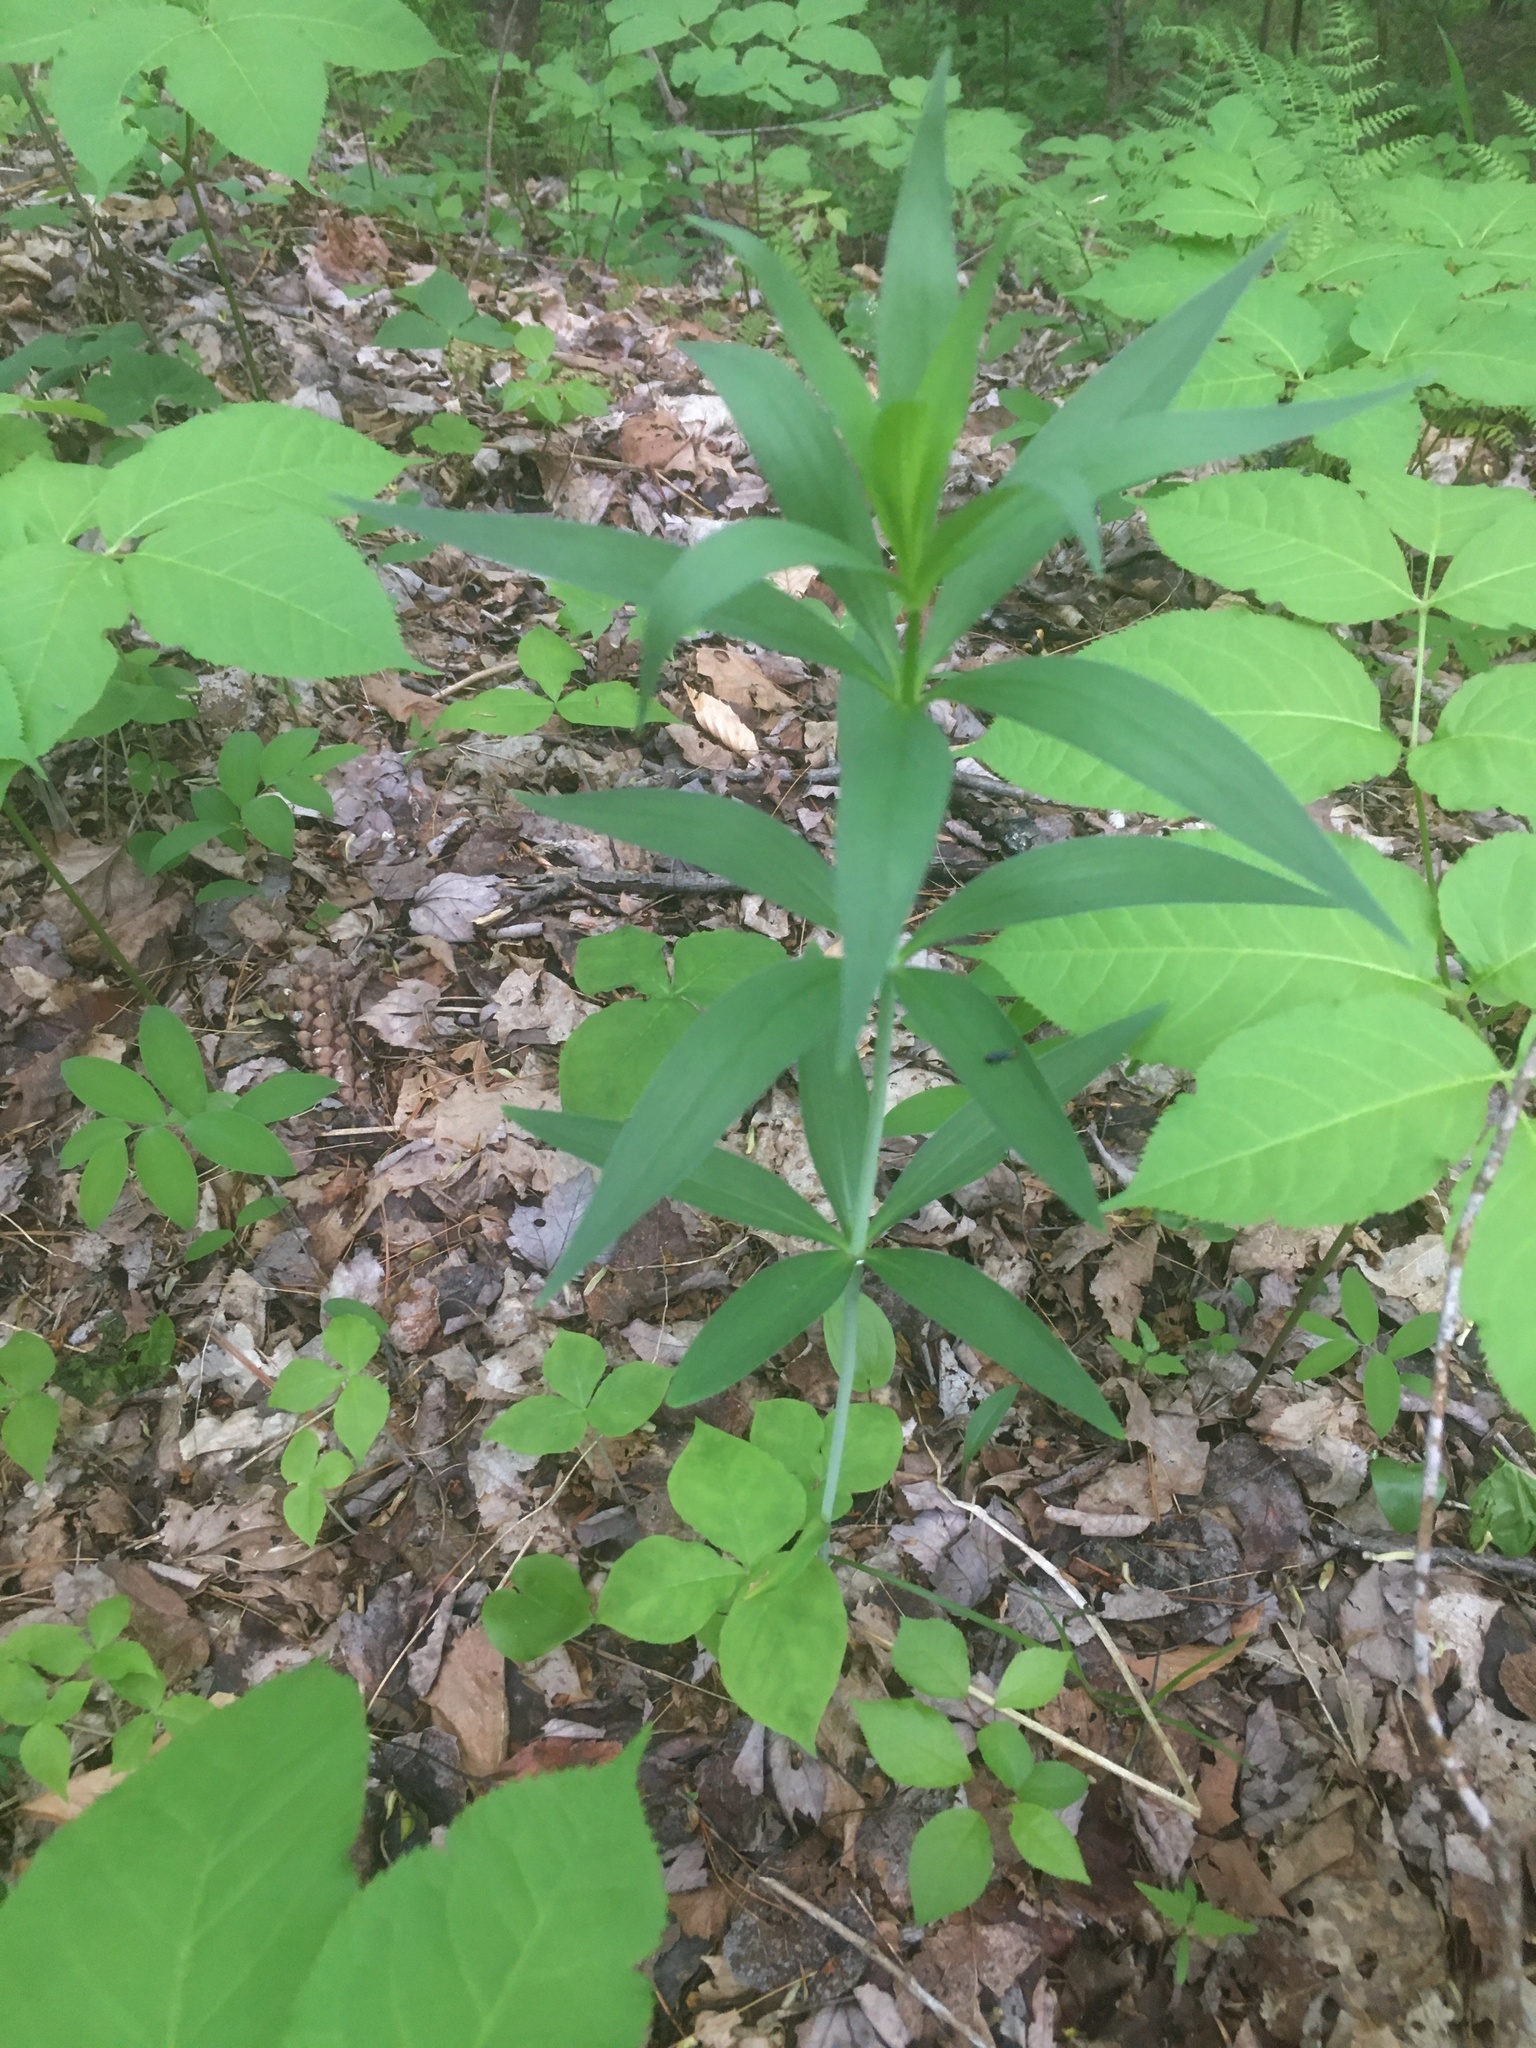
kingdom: Plantae
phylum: Tracheophyta
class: Liliopsida
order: Liliales
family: Liliaceae
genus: Lilium
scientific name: Lilium
